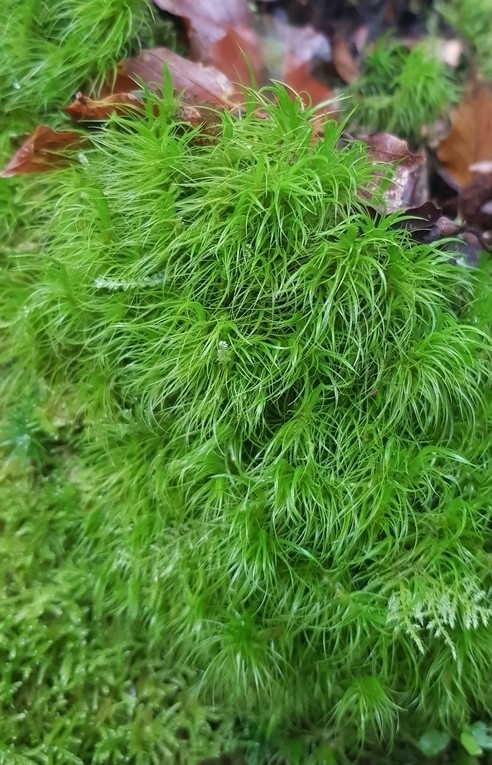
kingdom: Plantae
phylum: Bryophyta
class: Bryopsida
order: Dicranales
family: Dicranaceae
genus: Dicranum
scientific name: Dicranum majus
